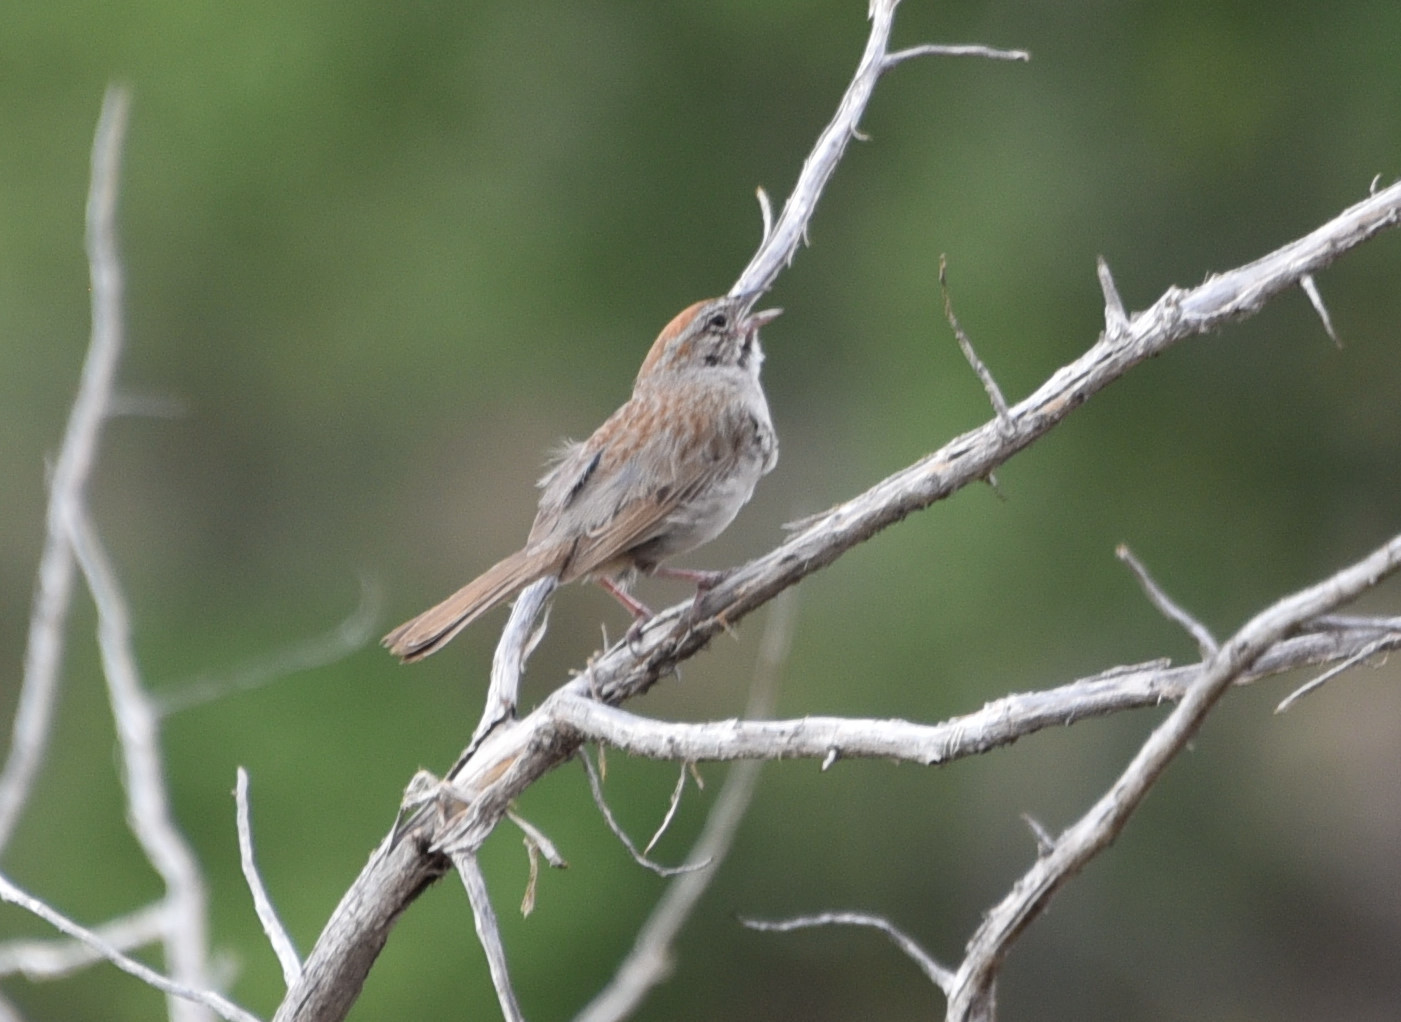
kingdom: Animalia
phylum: Chordata
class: Aves
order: Passeriformes
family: Passerellidae
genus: Aimophila
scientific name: Aimophila ruficeps
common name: Rufous-crowned sparrow
